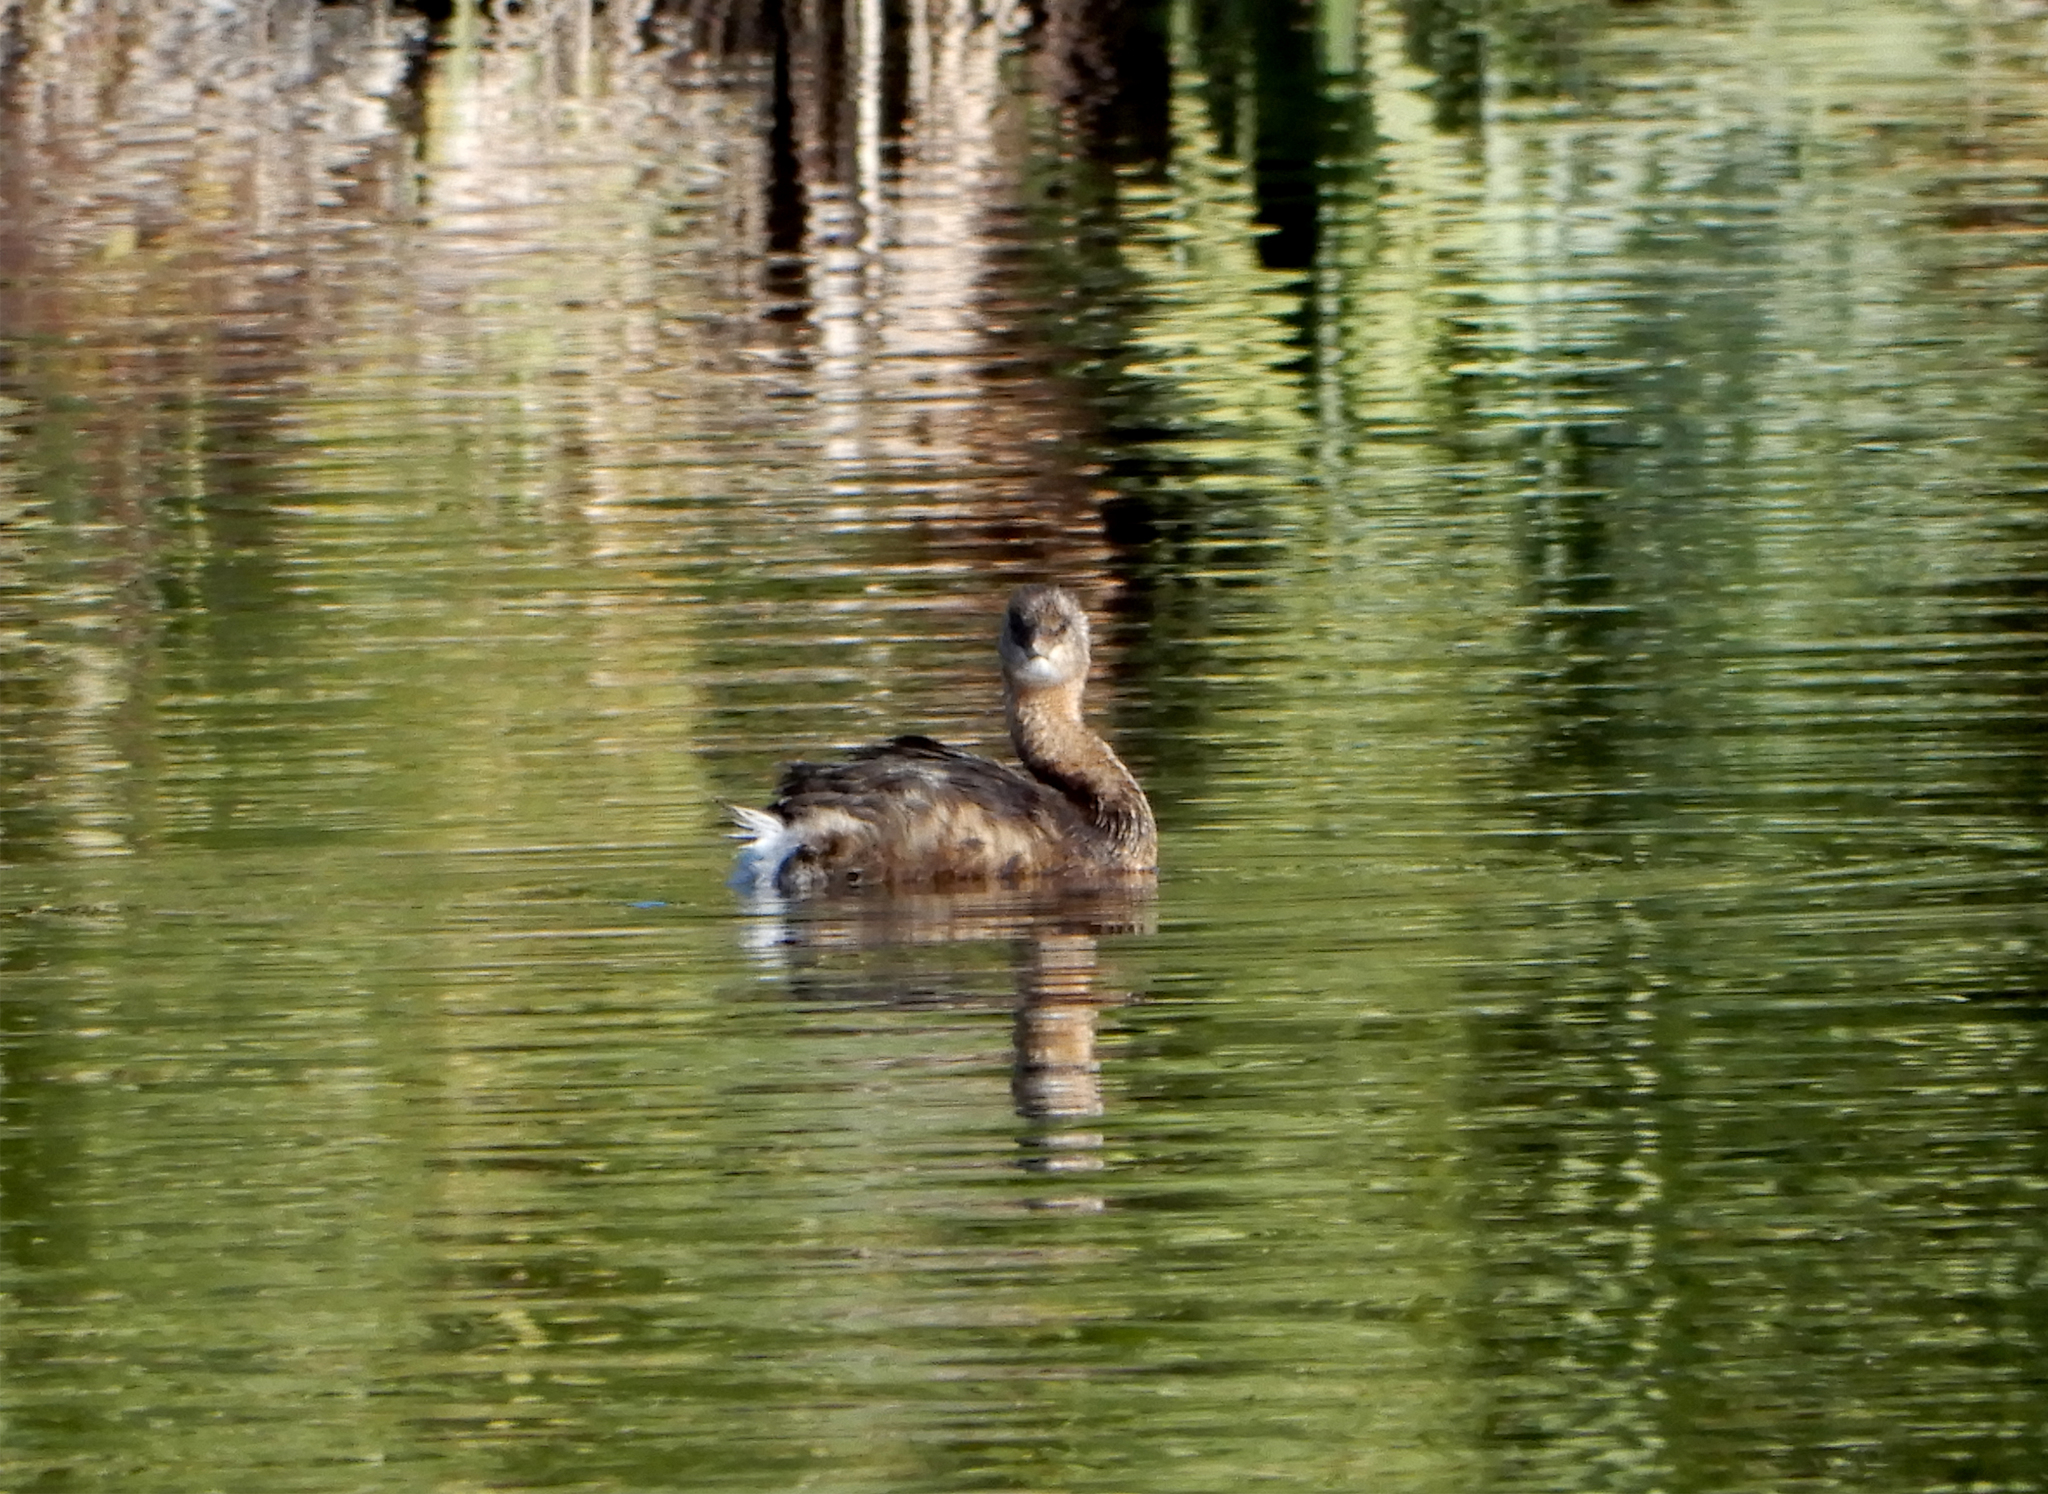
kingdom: Animalia
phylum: Chordata
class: Aves
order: Podicipediformes
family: Podicipedidae
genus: Podilymbus
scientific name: Podilymbus podiceps
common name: Pied-billed grebe
